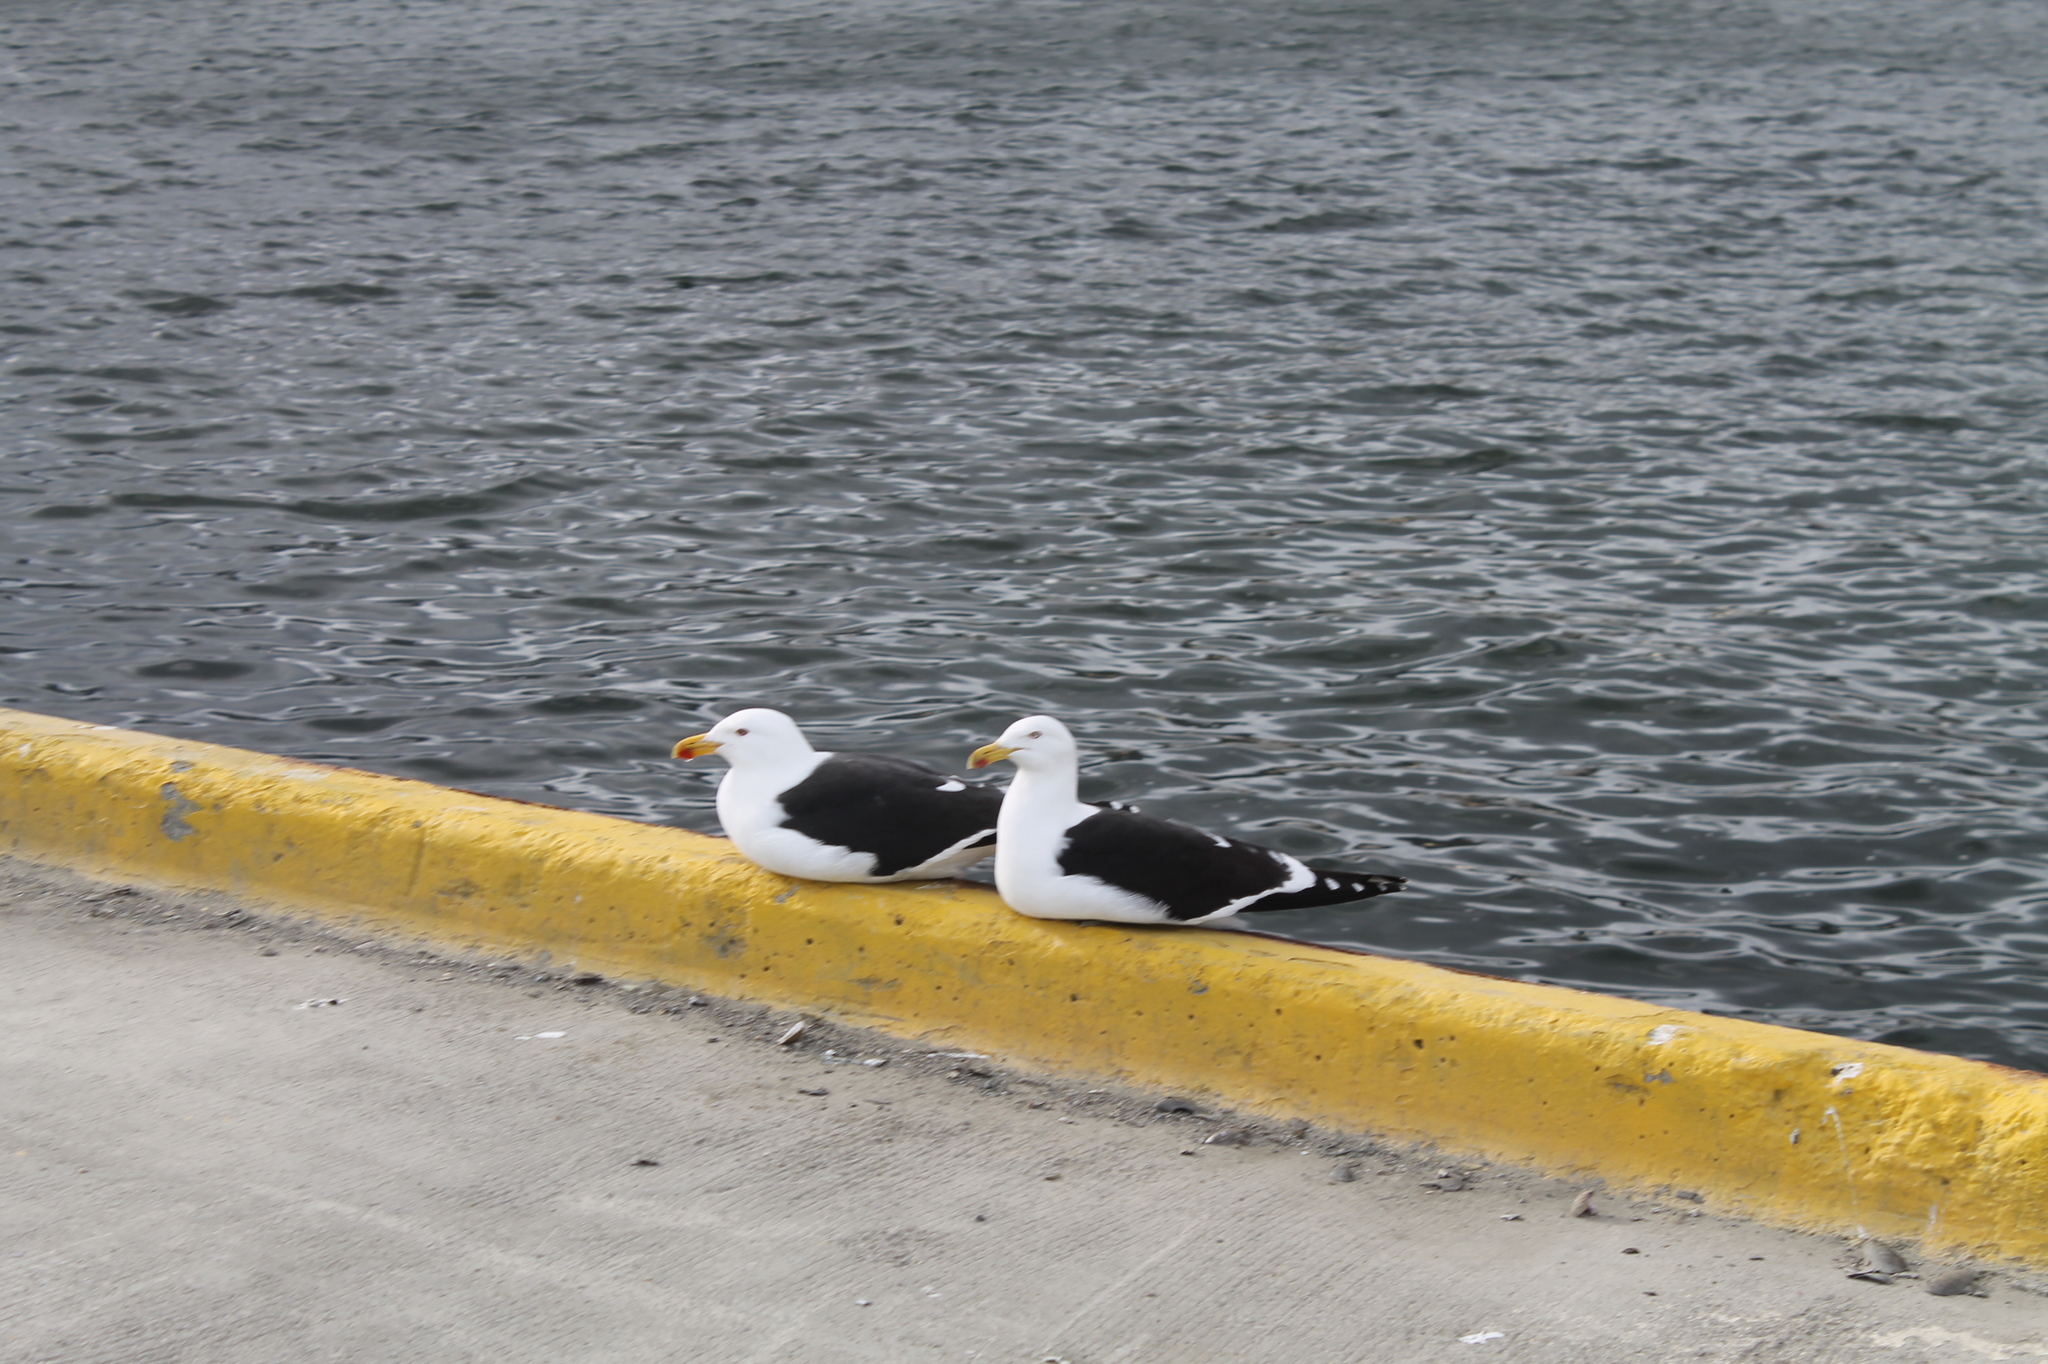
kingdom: Animalia
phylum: Chordata
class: Aves
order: Charadriiformes
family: Laridae
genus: Larus
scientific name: Larus dominicanus
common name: Kelp gull
